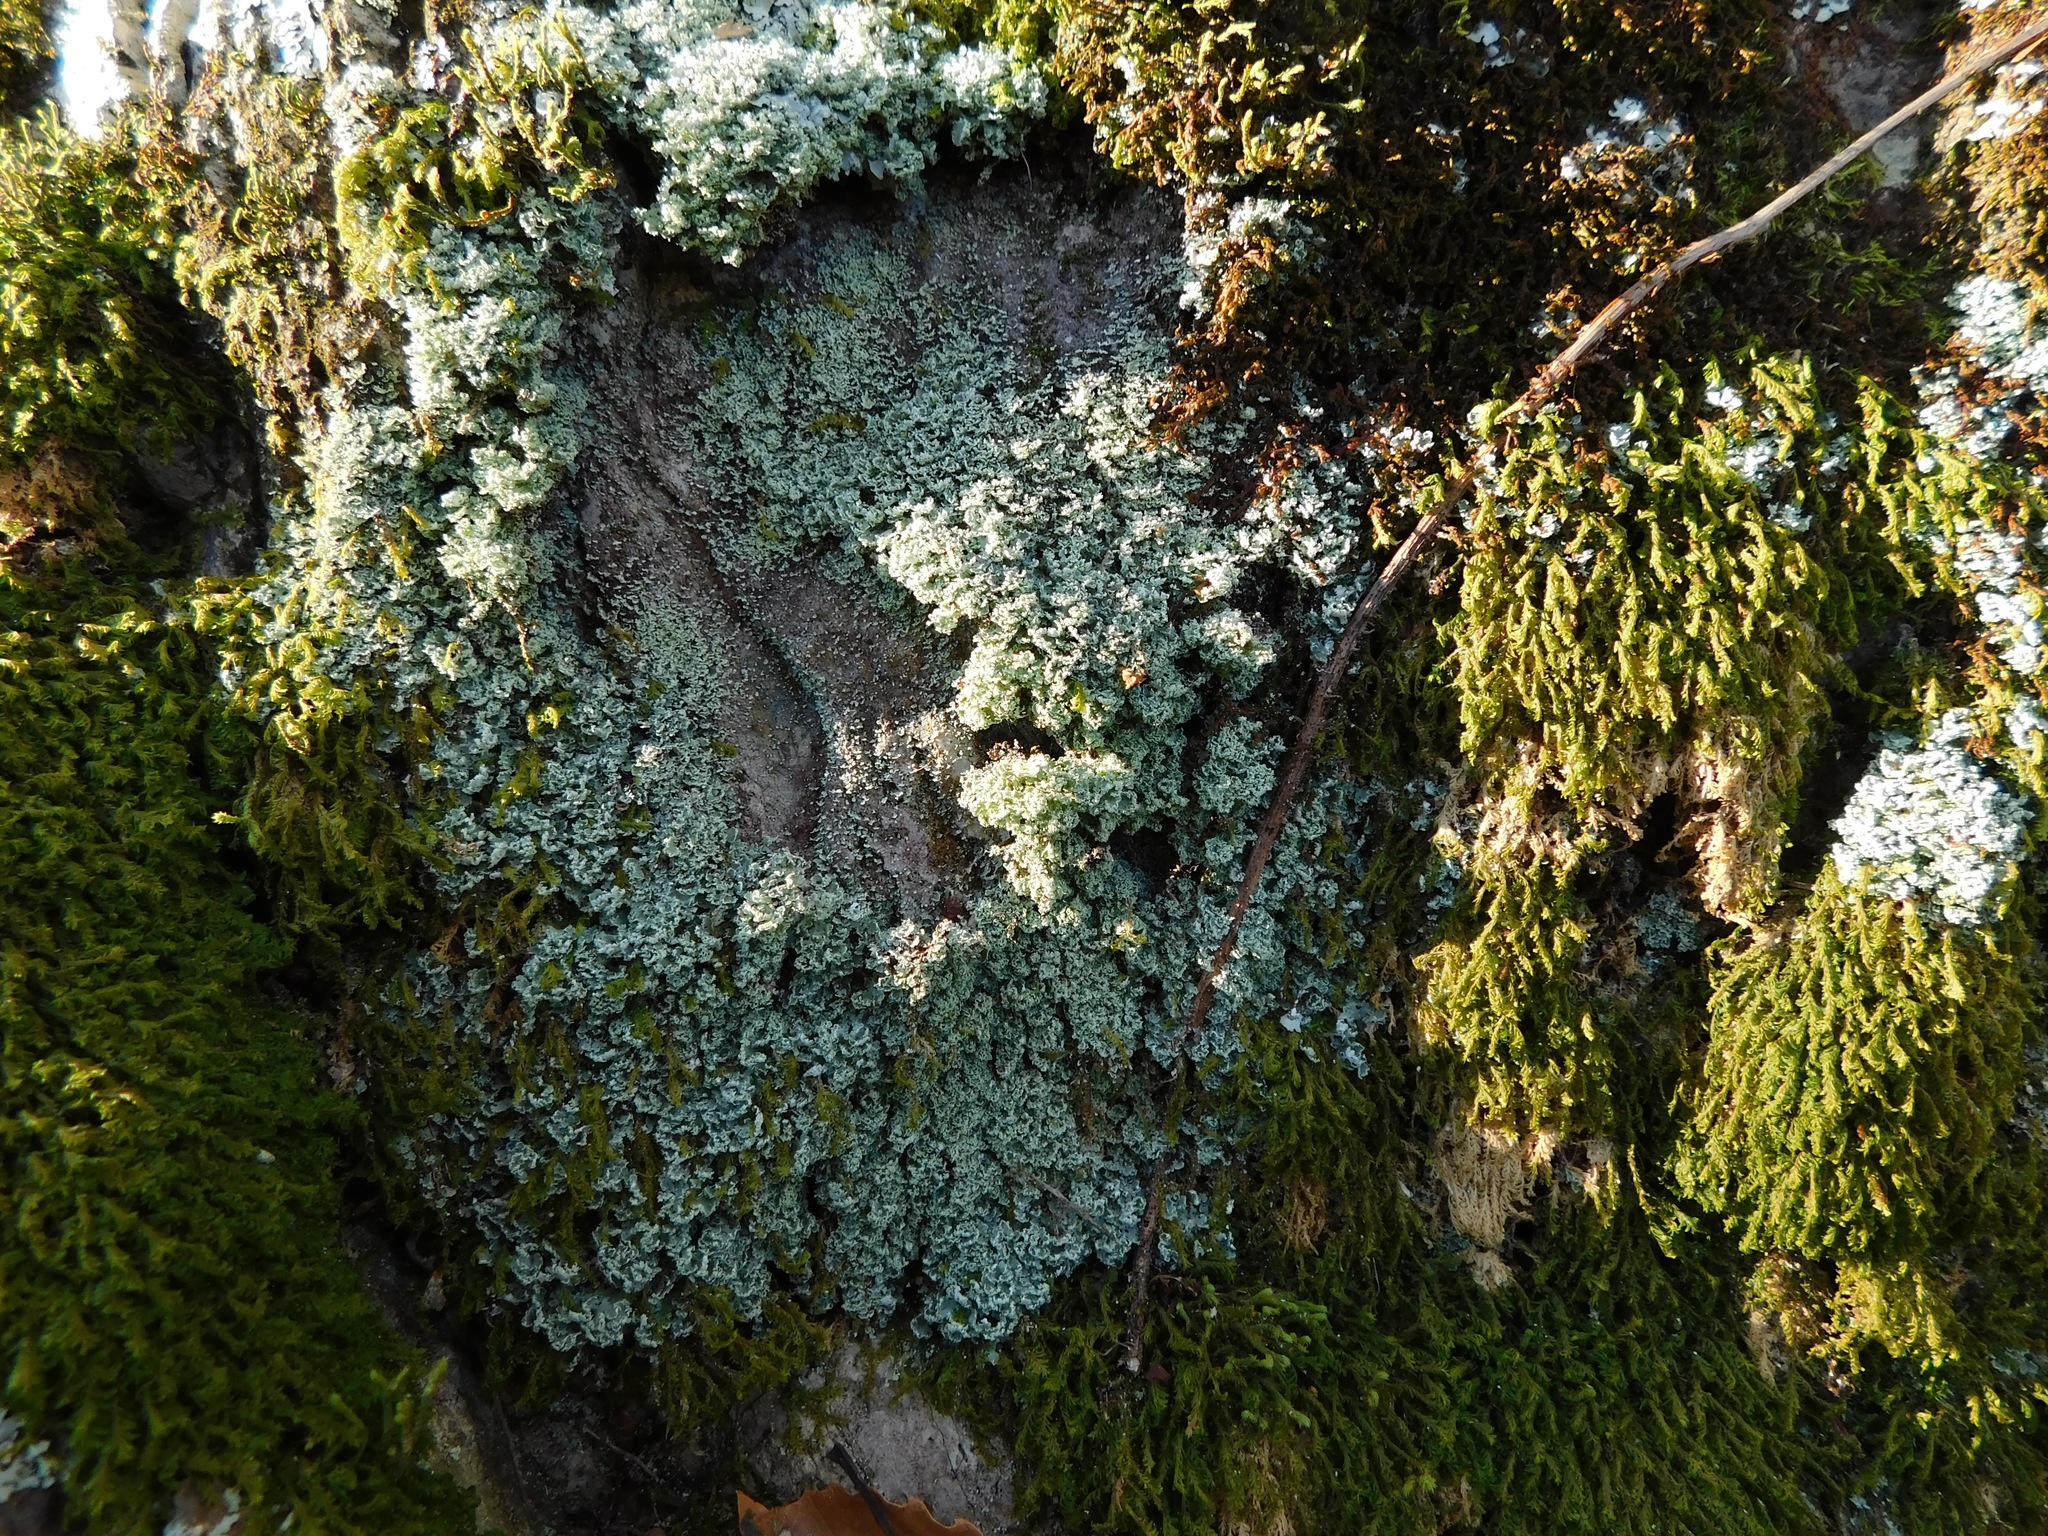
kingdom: Fungi
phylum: Ascomycota
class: Lecanoromycetes
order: Lecanorales
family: Cladoniaceae
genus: Cladonia
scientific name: Cladonia caespiticia
